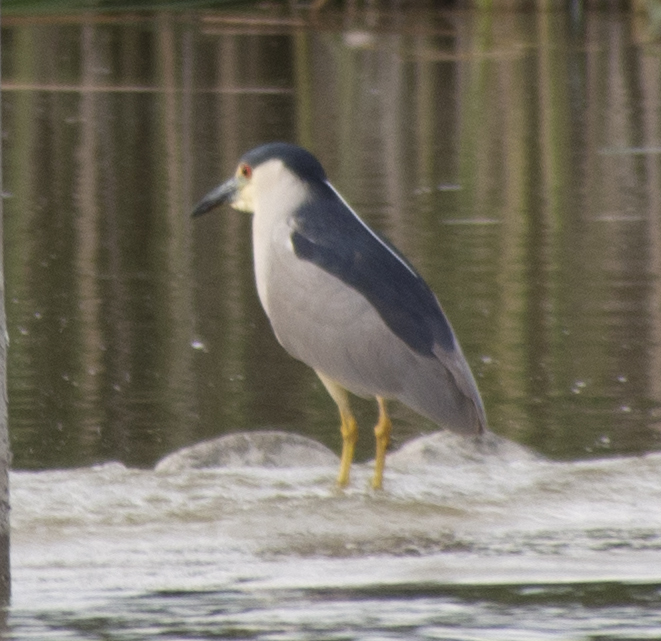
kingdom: Animalia
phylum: Chordata
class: Aves
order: Pelecaniformes
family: Ardeidae
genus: Nycticorax
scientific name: Nycticorax nycticorax
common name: Black-crowned night heron
